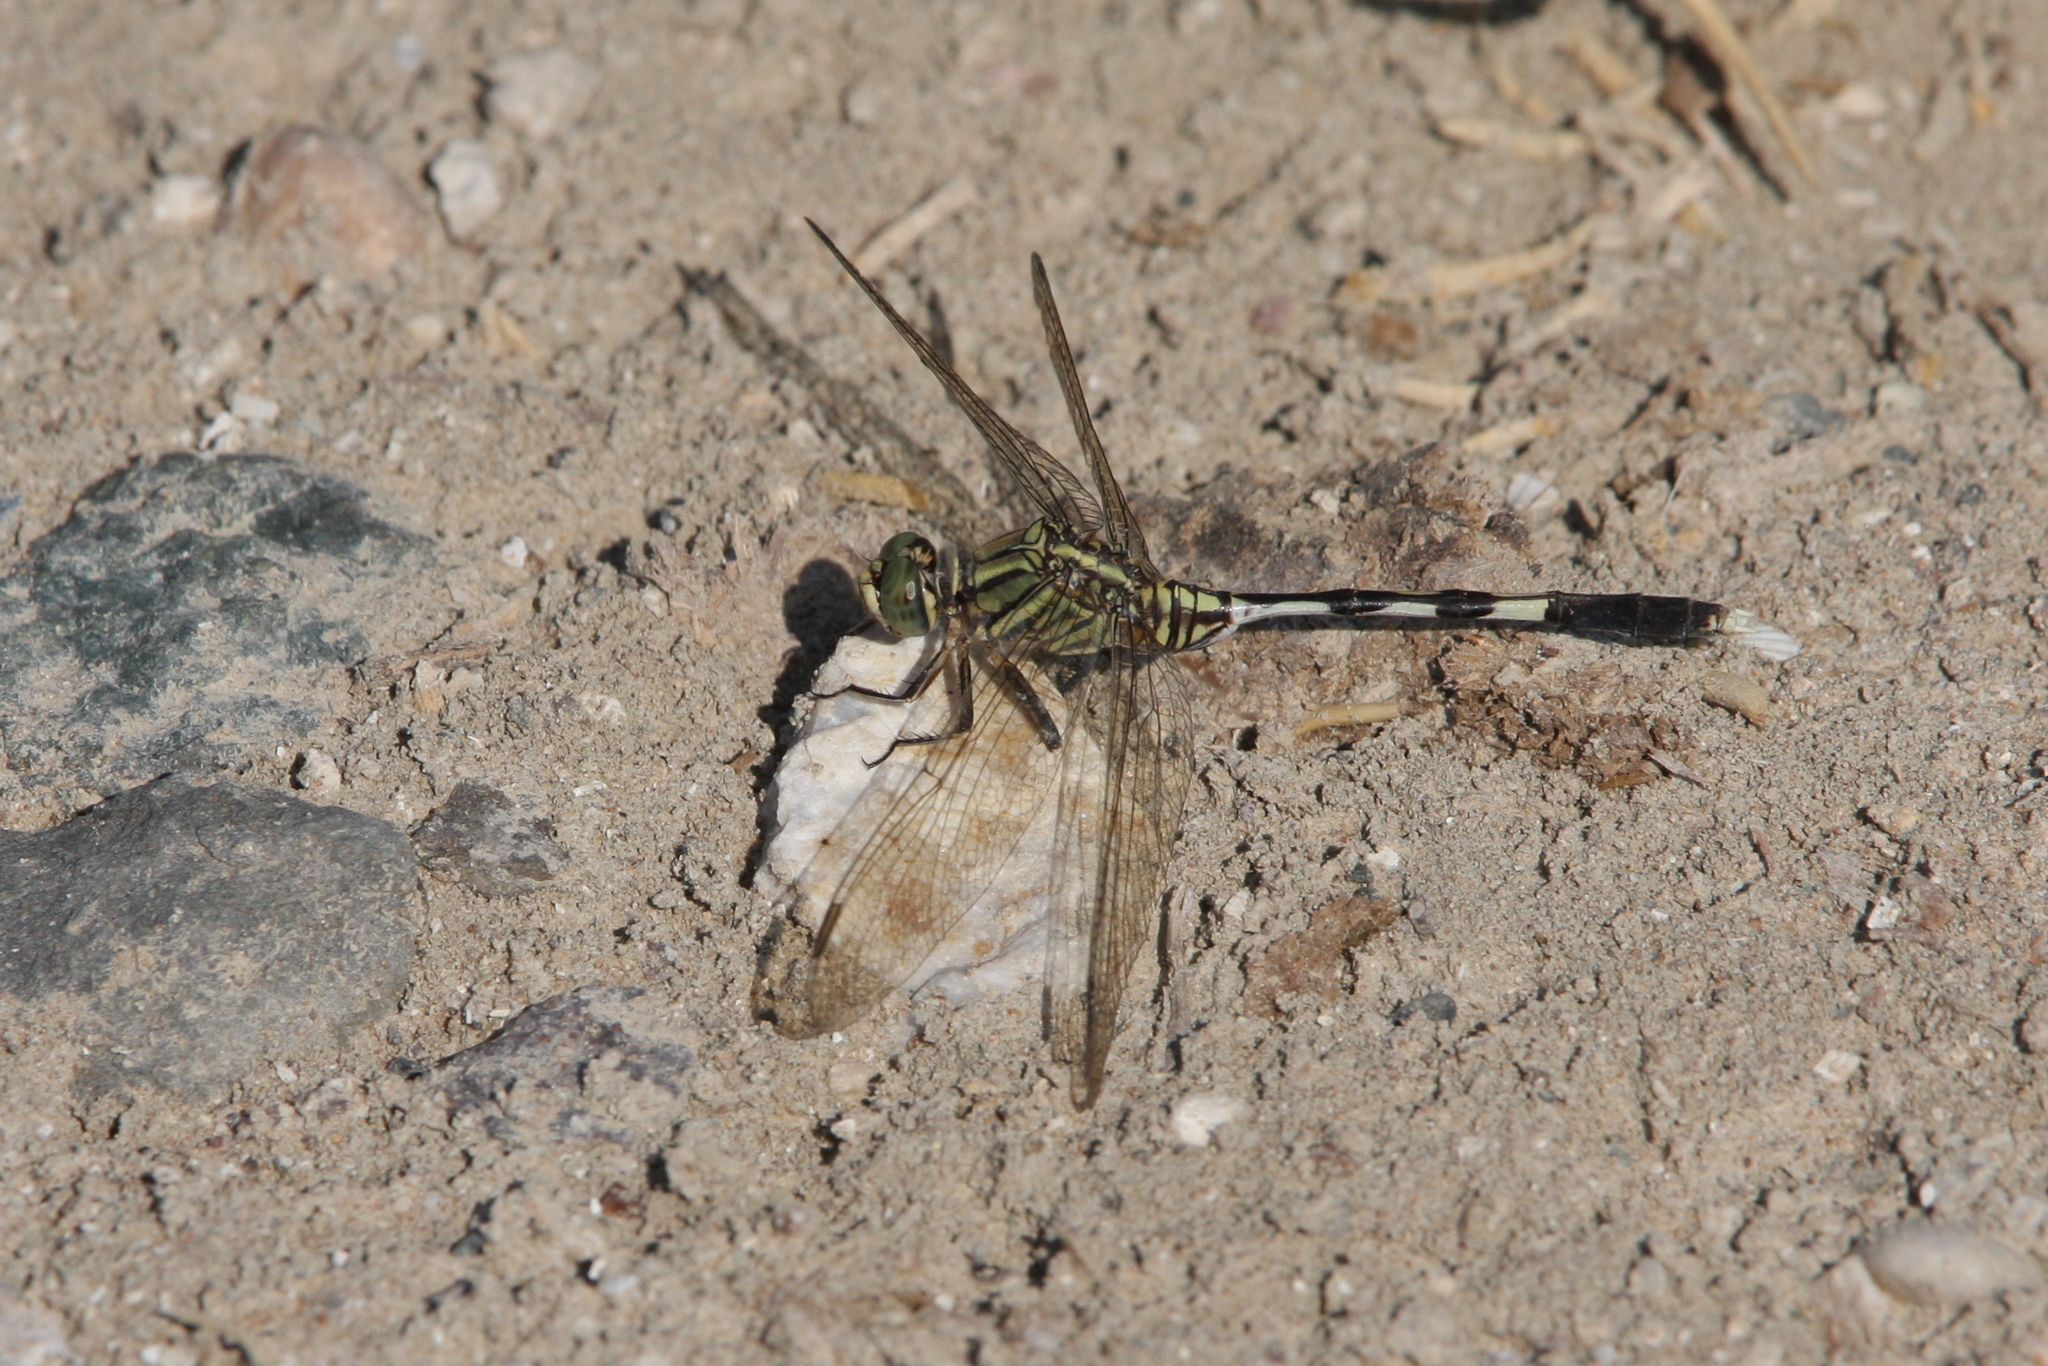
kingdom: Animalia
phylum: Arthropoda
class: Insecta
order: Odonata
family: Libellulidae
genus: Orthetrum
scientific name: Orthetrum sabina
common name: Slender skimmer
